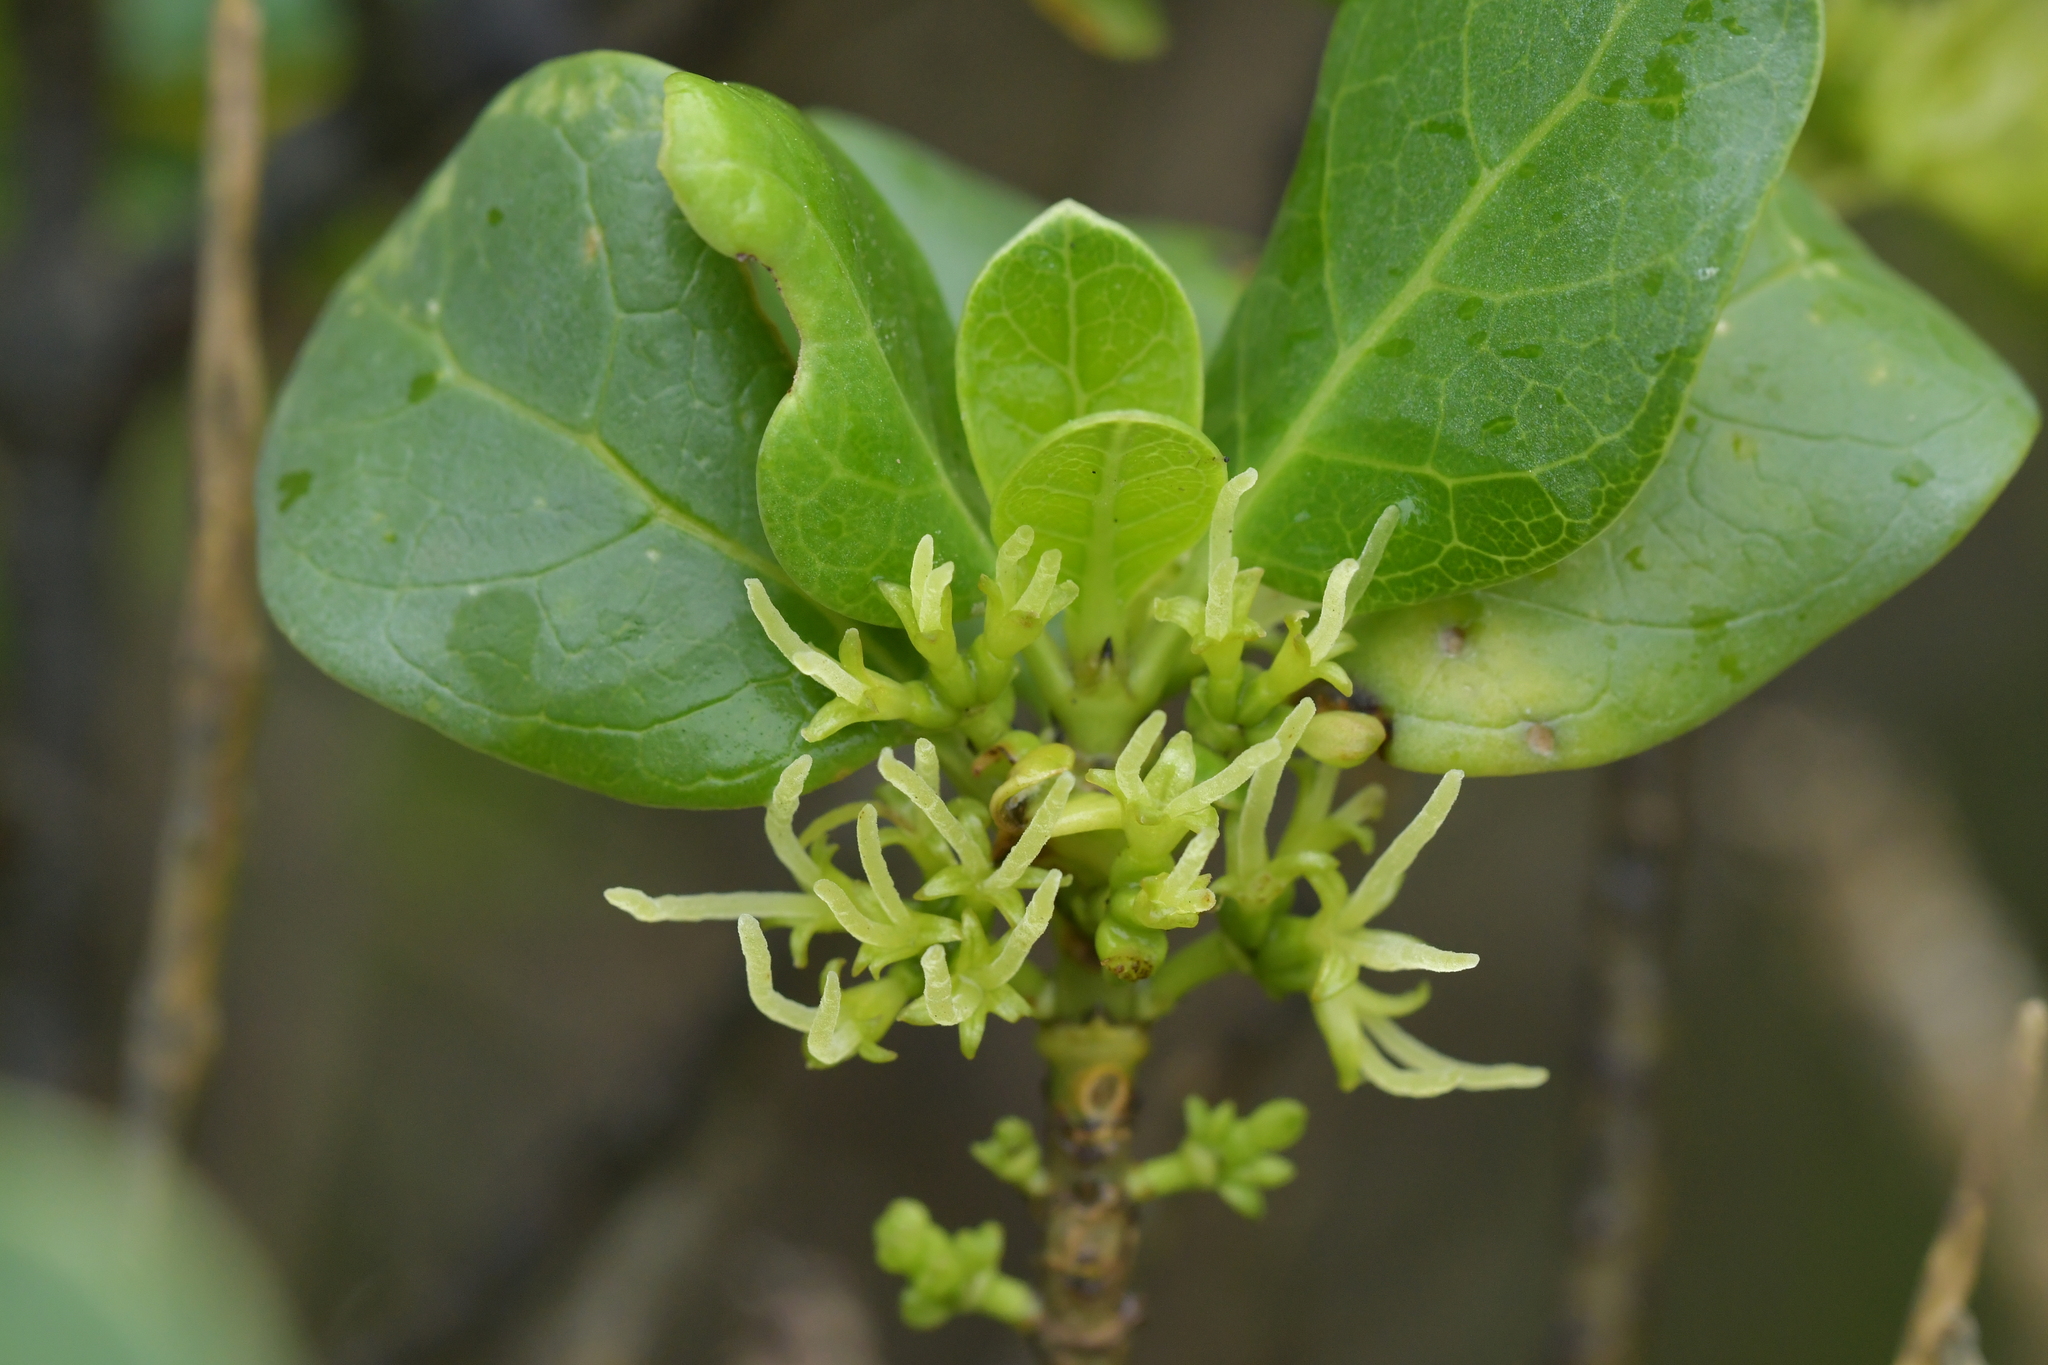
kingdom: Plantae
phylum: Tracheophyta
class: Magnoliopsida
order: Gentianales
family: Rubiaceae
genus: Coprosma
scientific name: Coprosma repens
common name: Tree bedstraw
